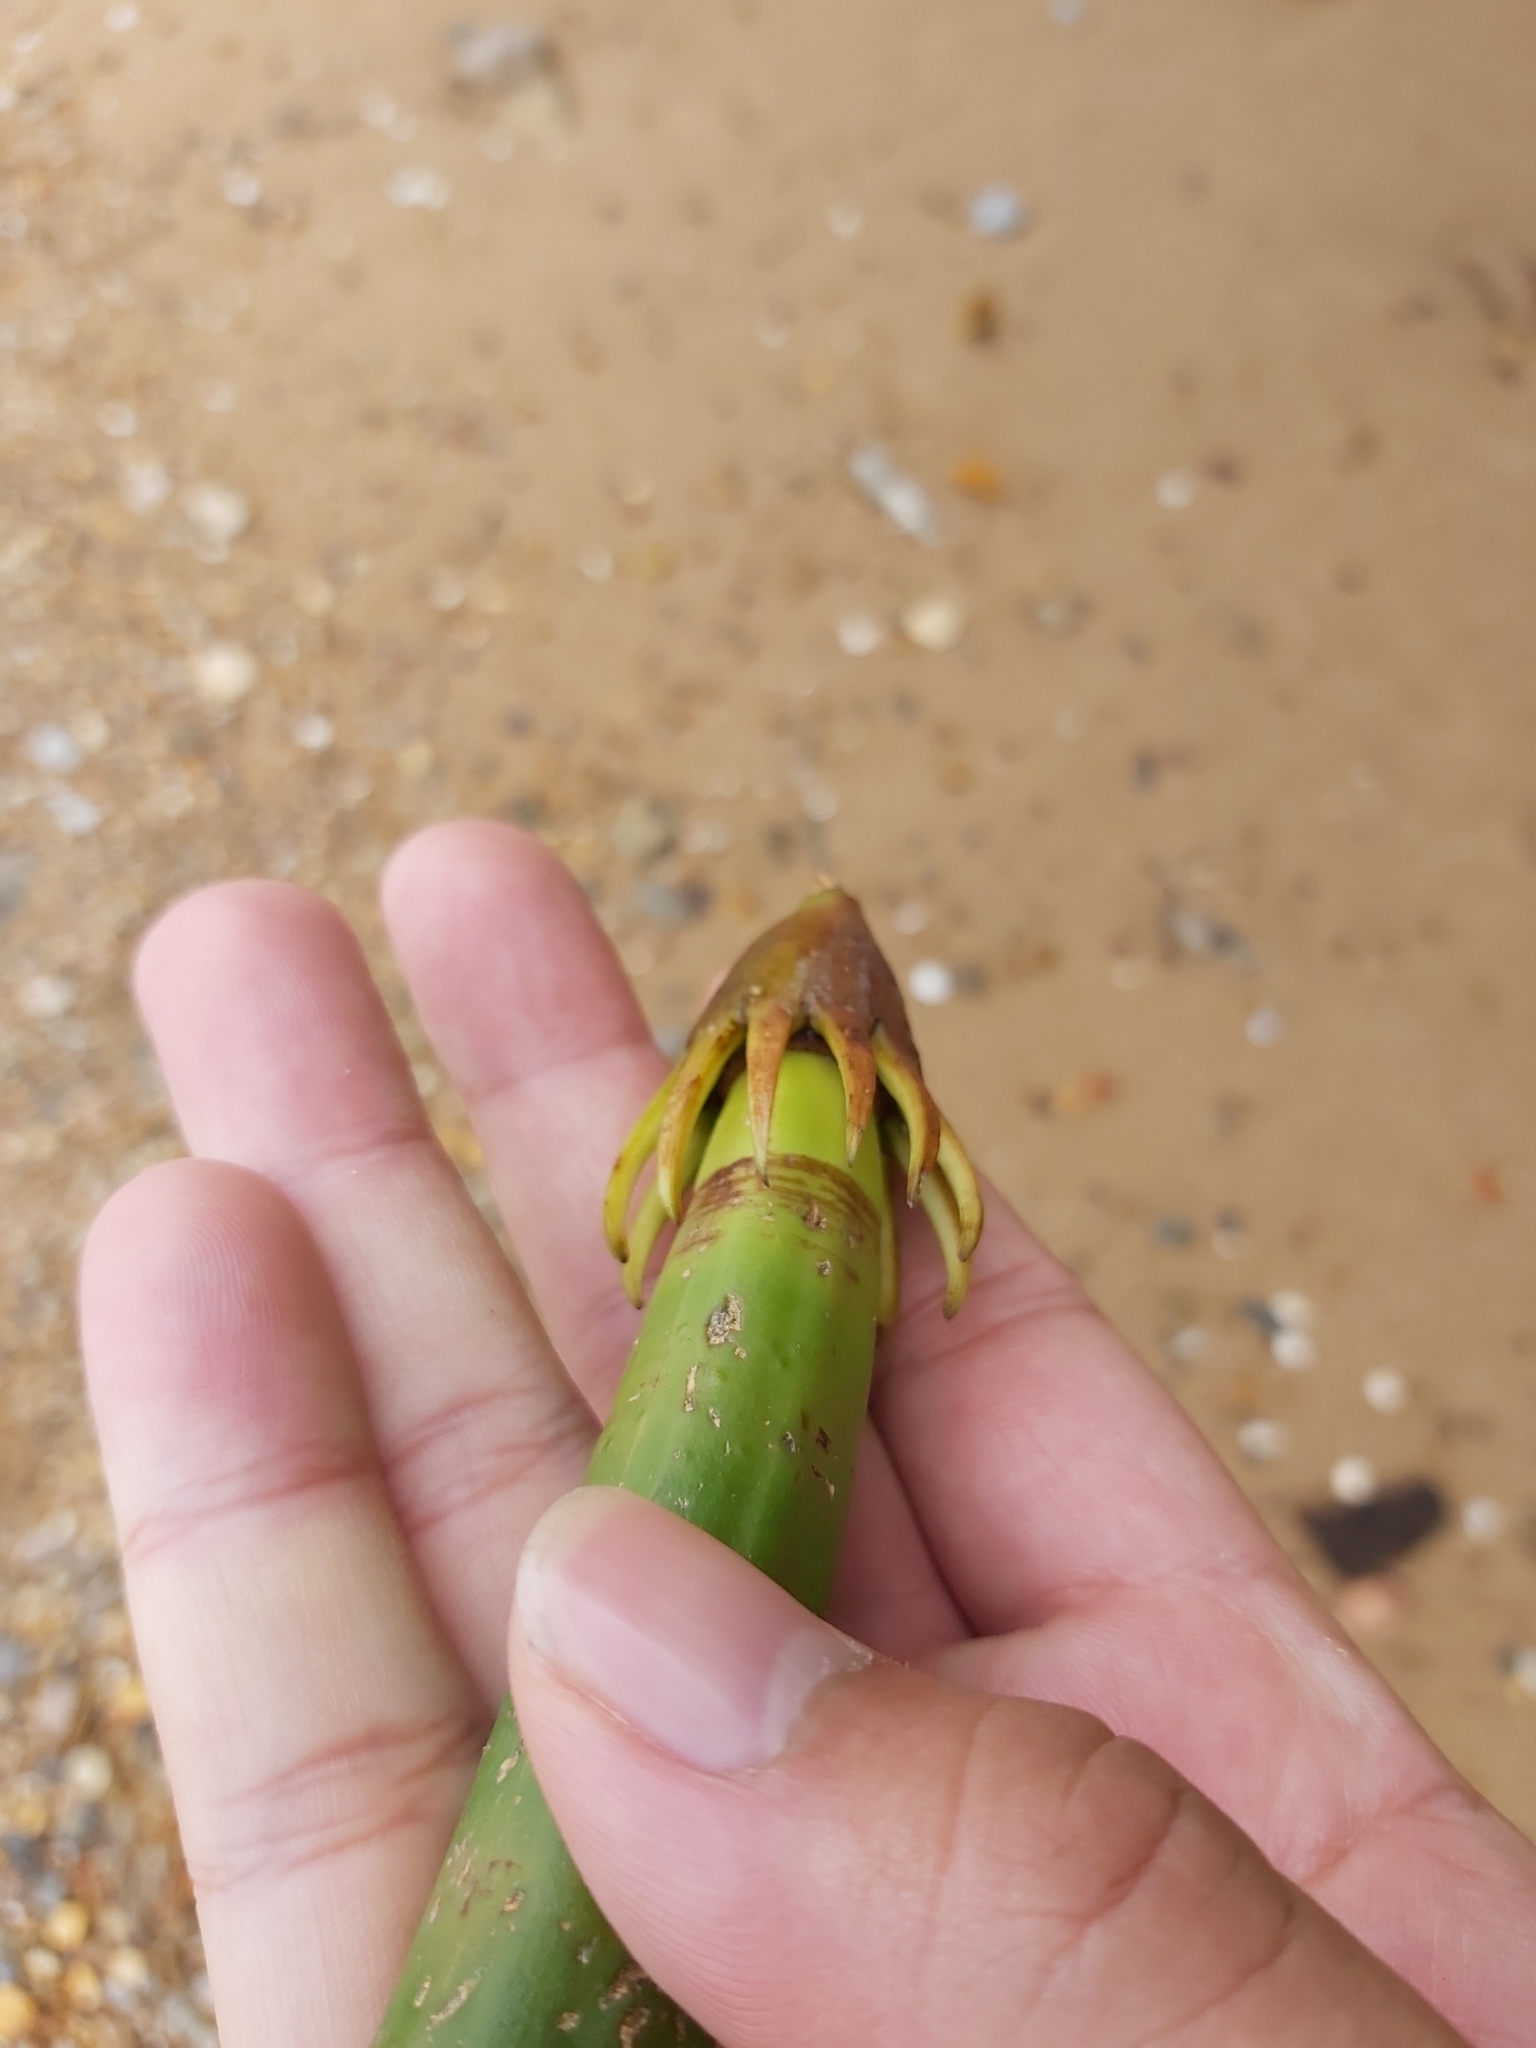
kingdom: Plantae
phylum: Tracheophyta
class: Magnoliopsida
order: Malpighiales
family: Rhizophoraceae
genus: Bruguiera
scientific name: Bruguiera gymnorhiza
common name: Oriental mangrove
